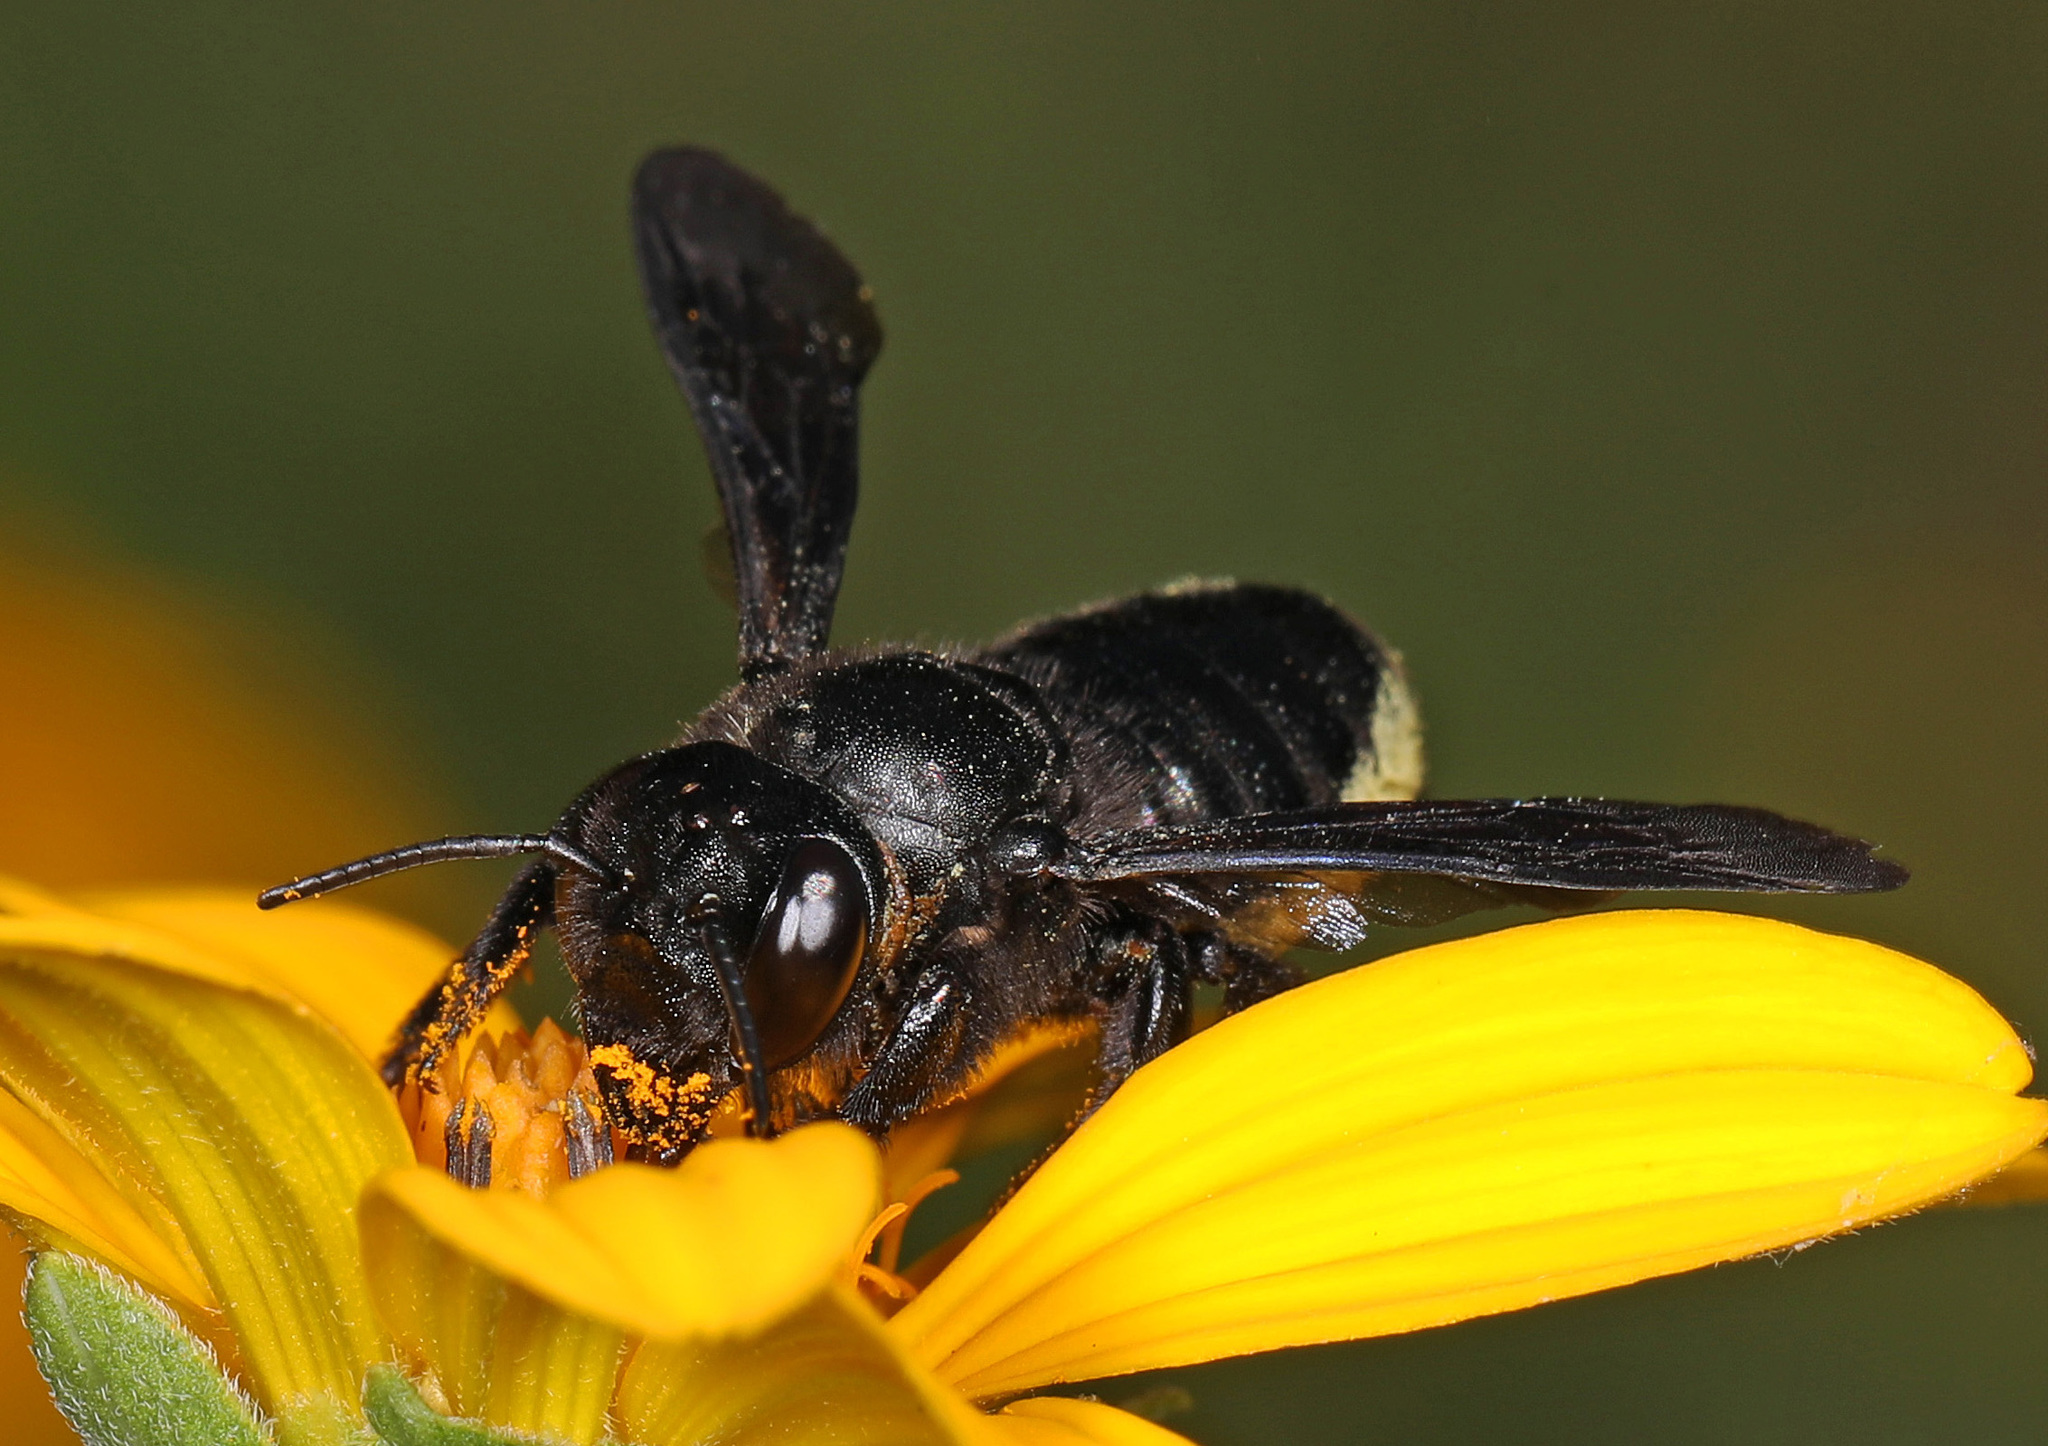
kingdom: Animalia
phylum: Arthropoda
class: Insecta
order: Hymenoptera
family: Megachilidae
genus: Megachile
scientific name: Megachile xylocopoides
